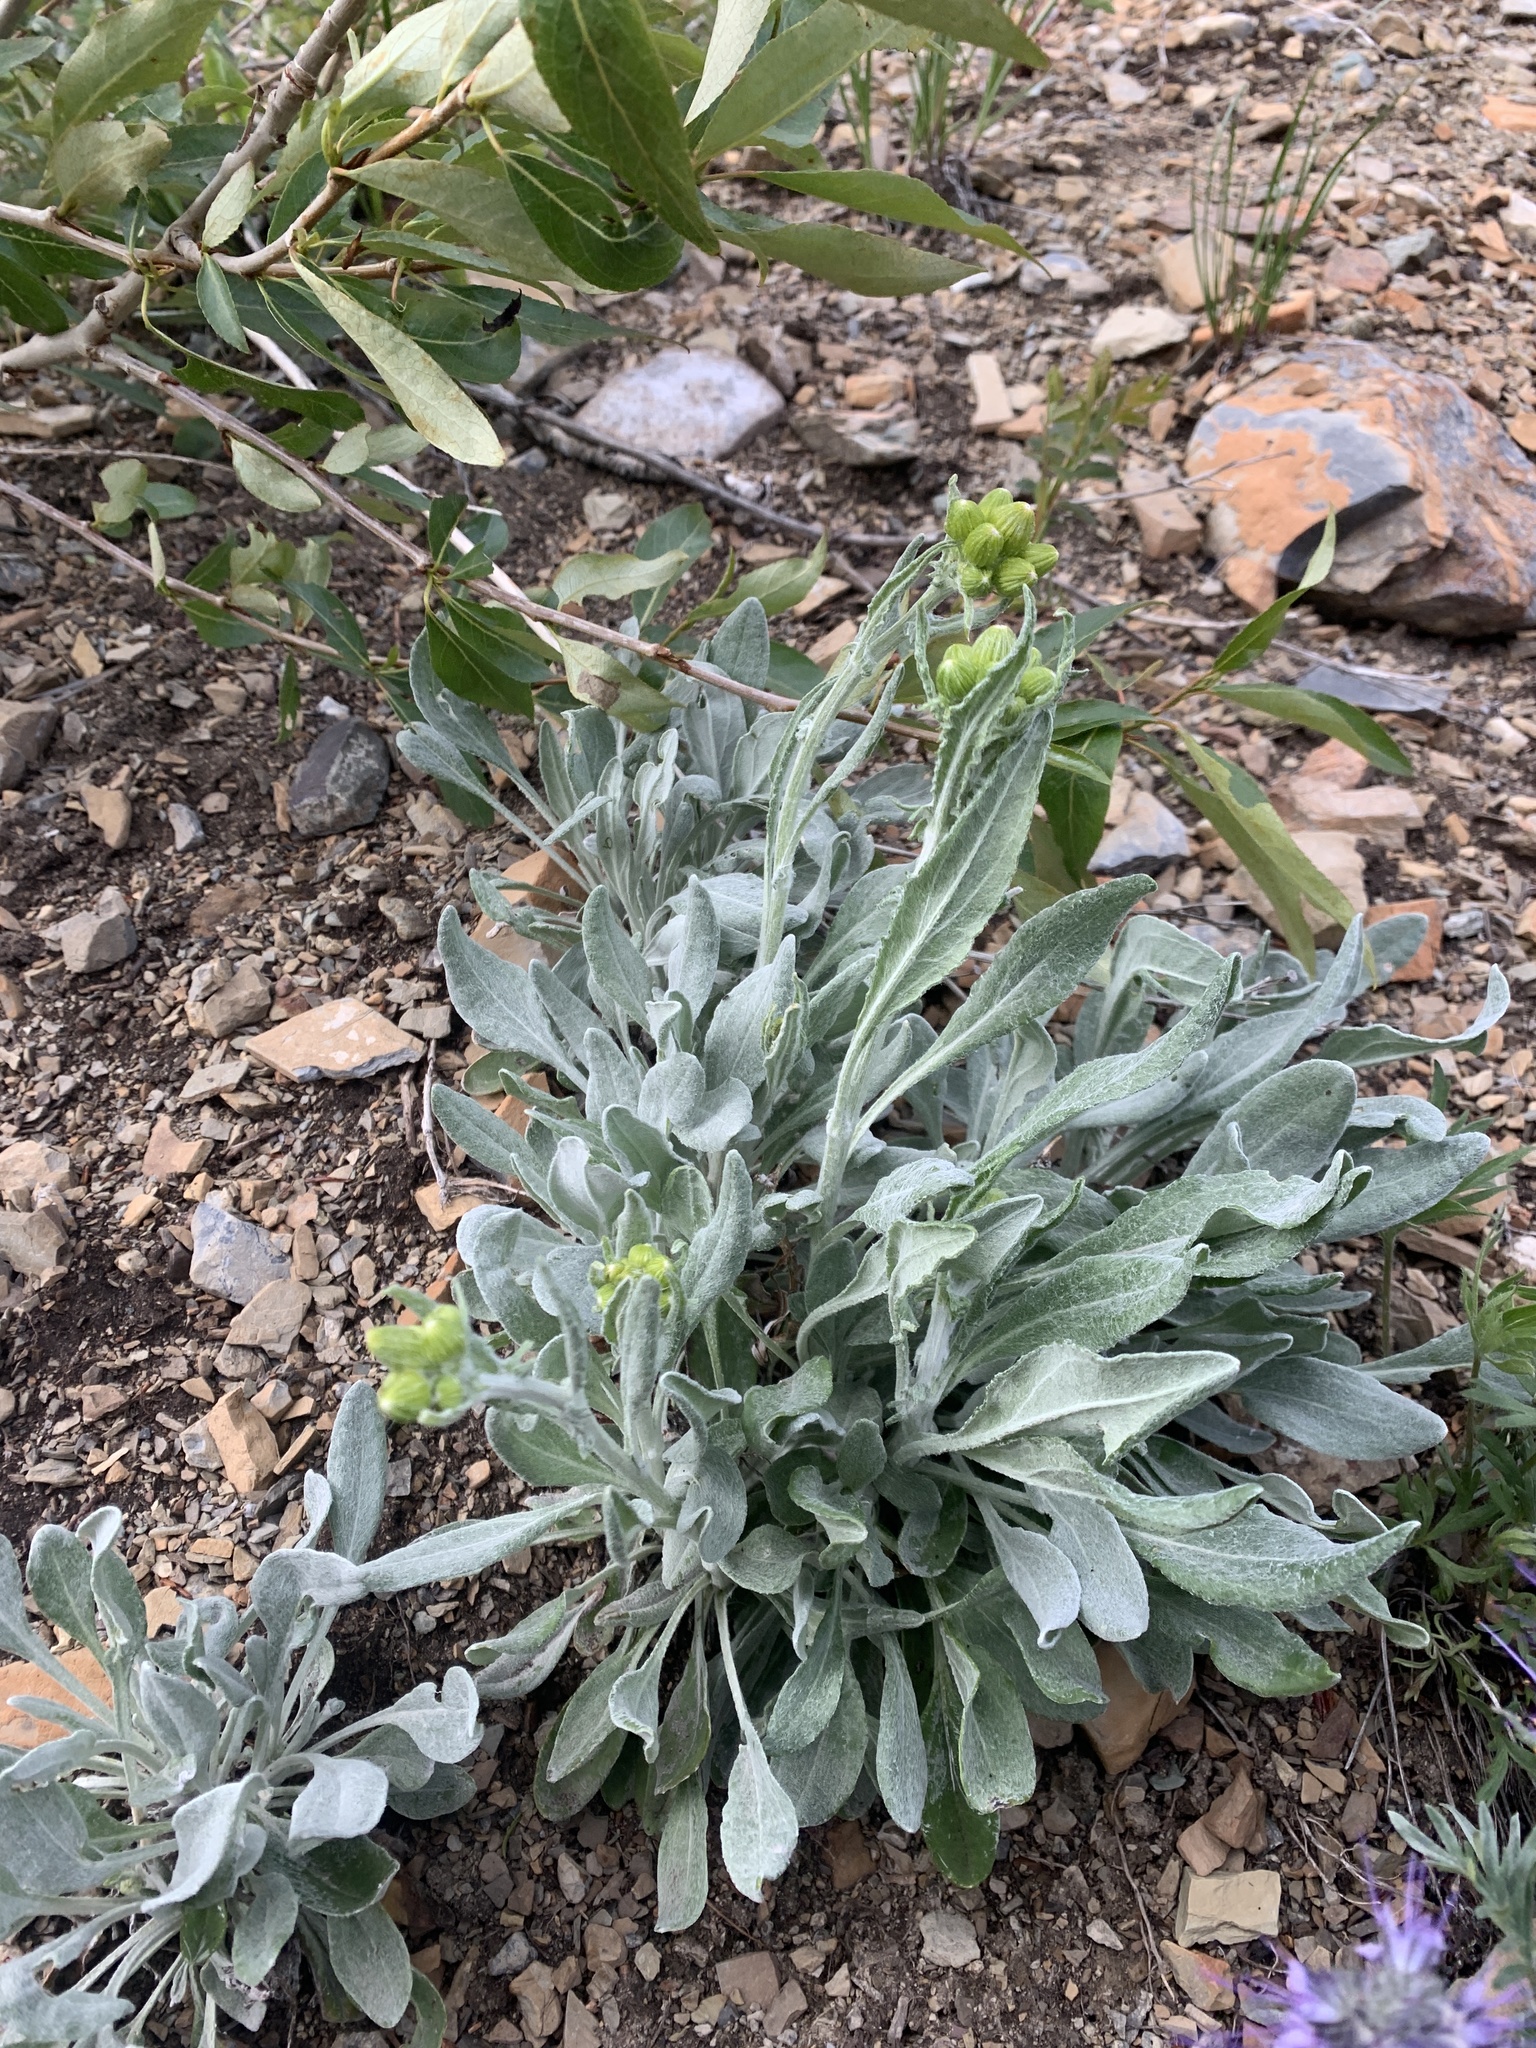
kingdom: Plantae
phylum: Tracheophyta
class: Magnoliopsida
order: Asterales
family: Asteraceae
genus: Packera
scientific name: Packera cana
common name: Woolly groundsel
